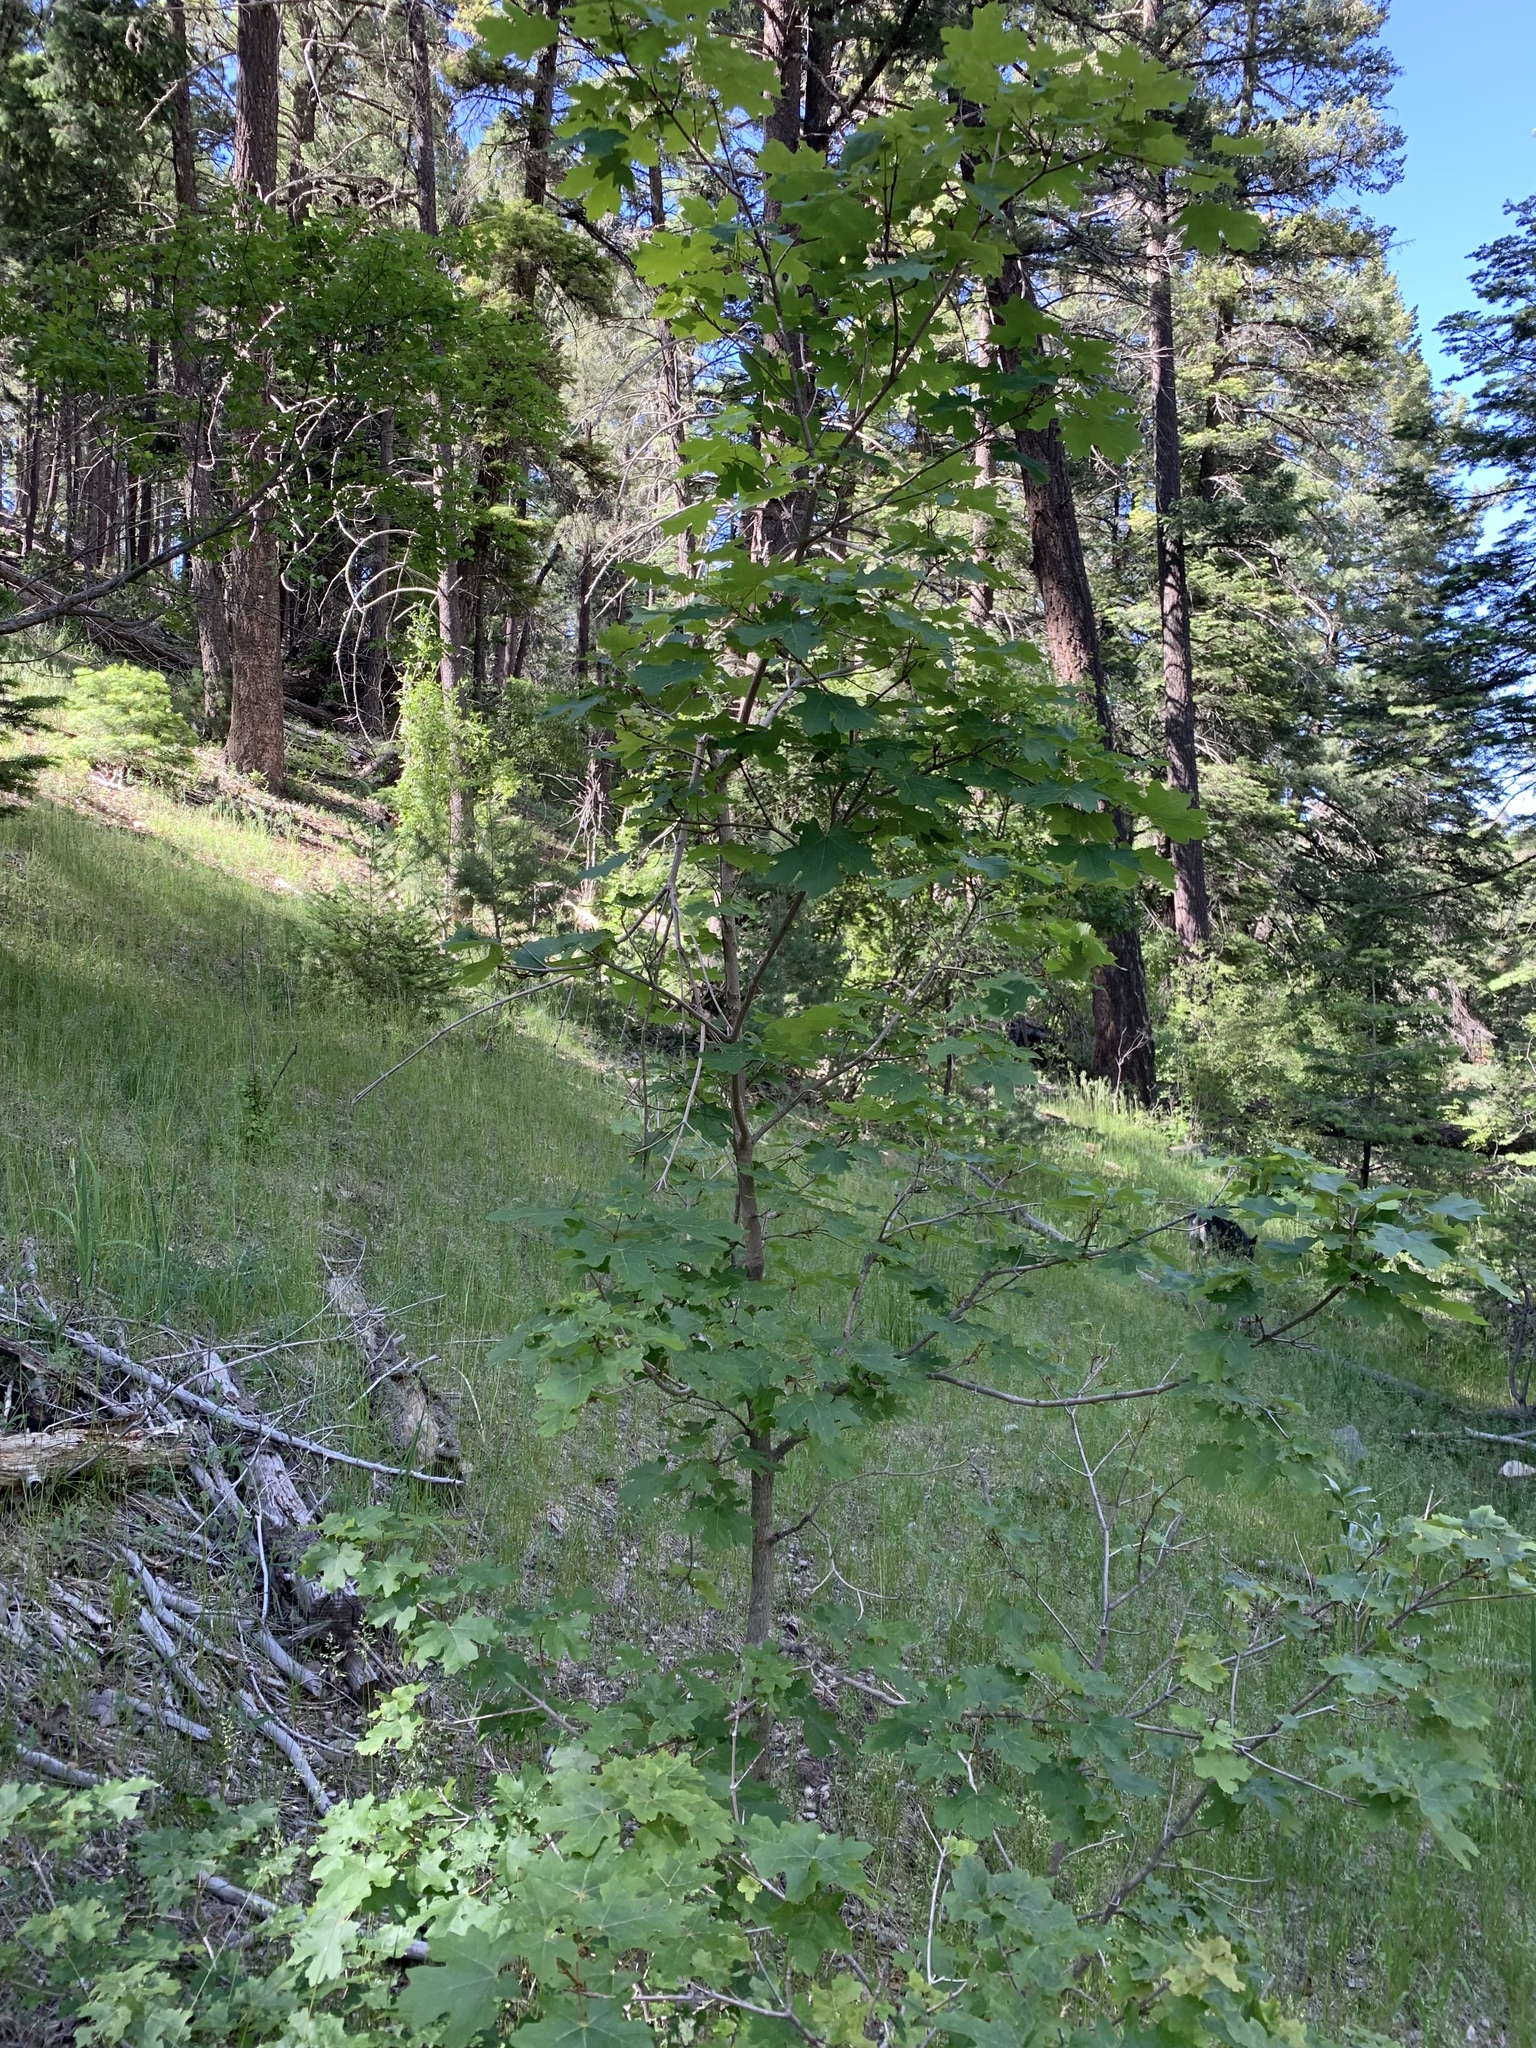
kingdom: Plantae
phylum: Tracheophyta
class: Magnoliopsida
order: Sapindales
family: Sapindaceae
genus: Acer
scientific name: Acer grandidentatum
